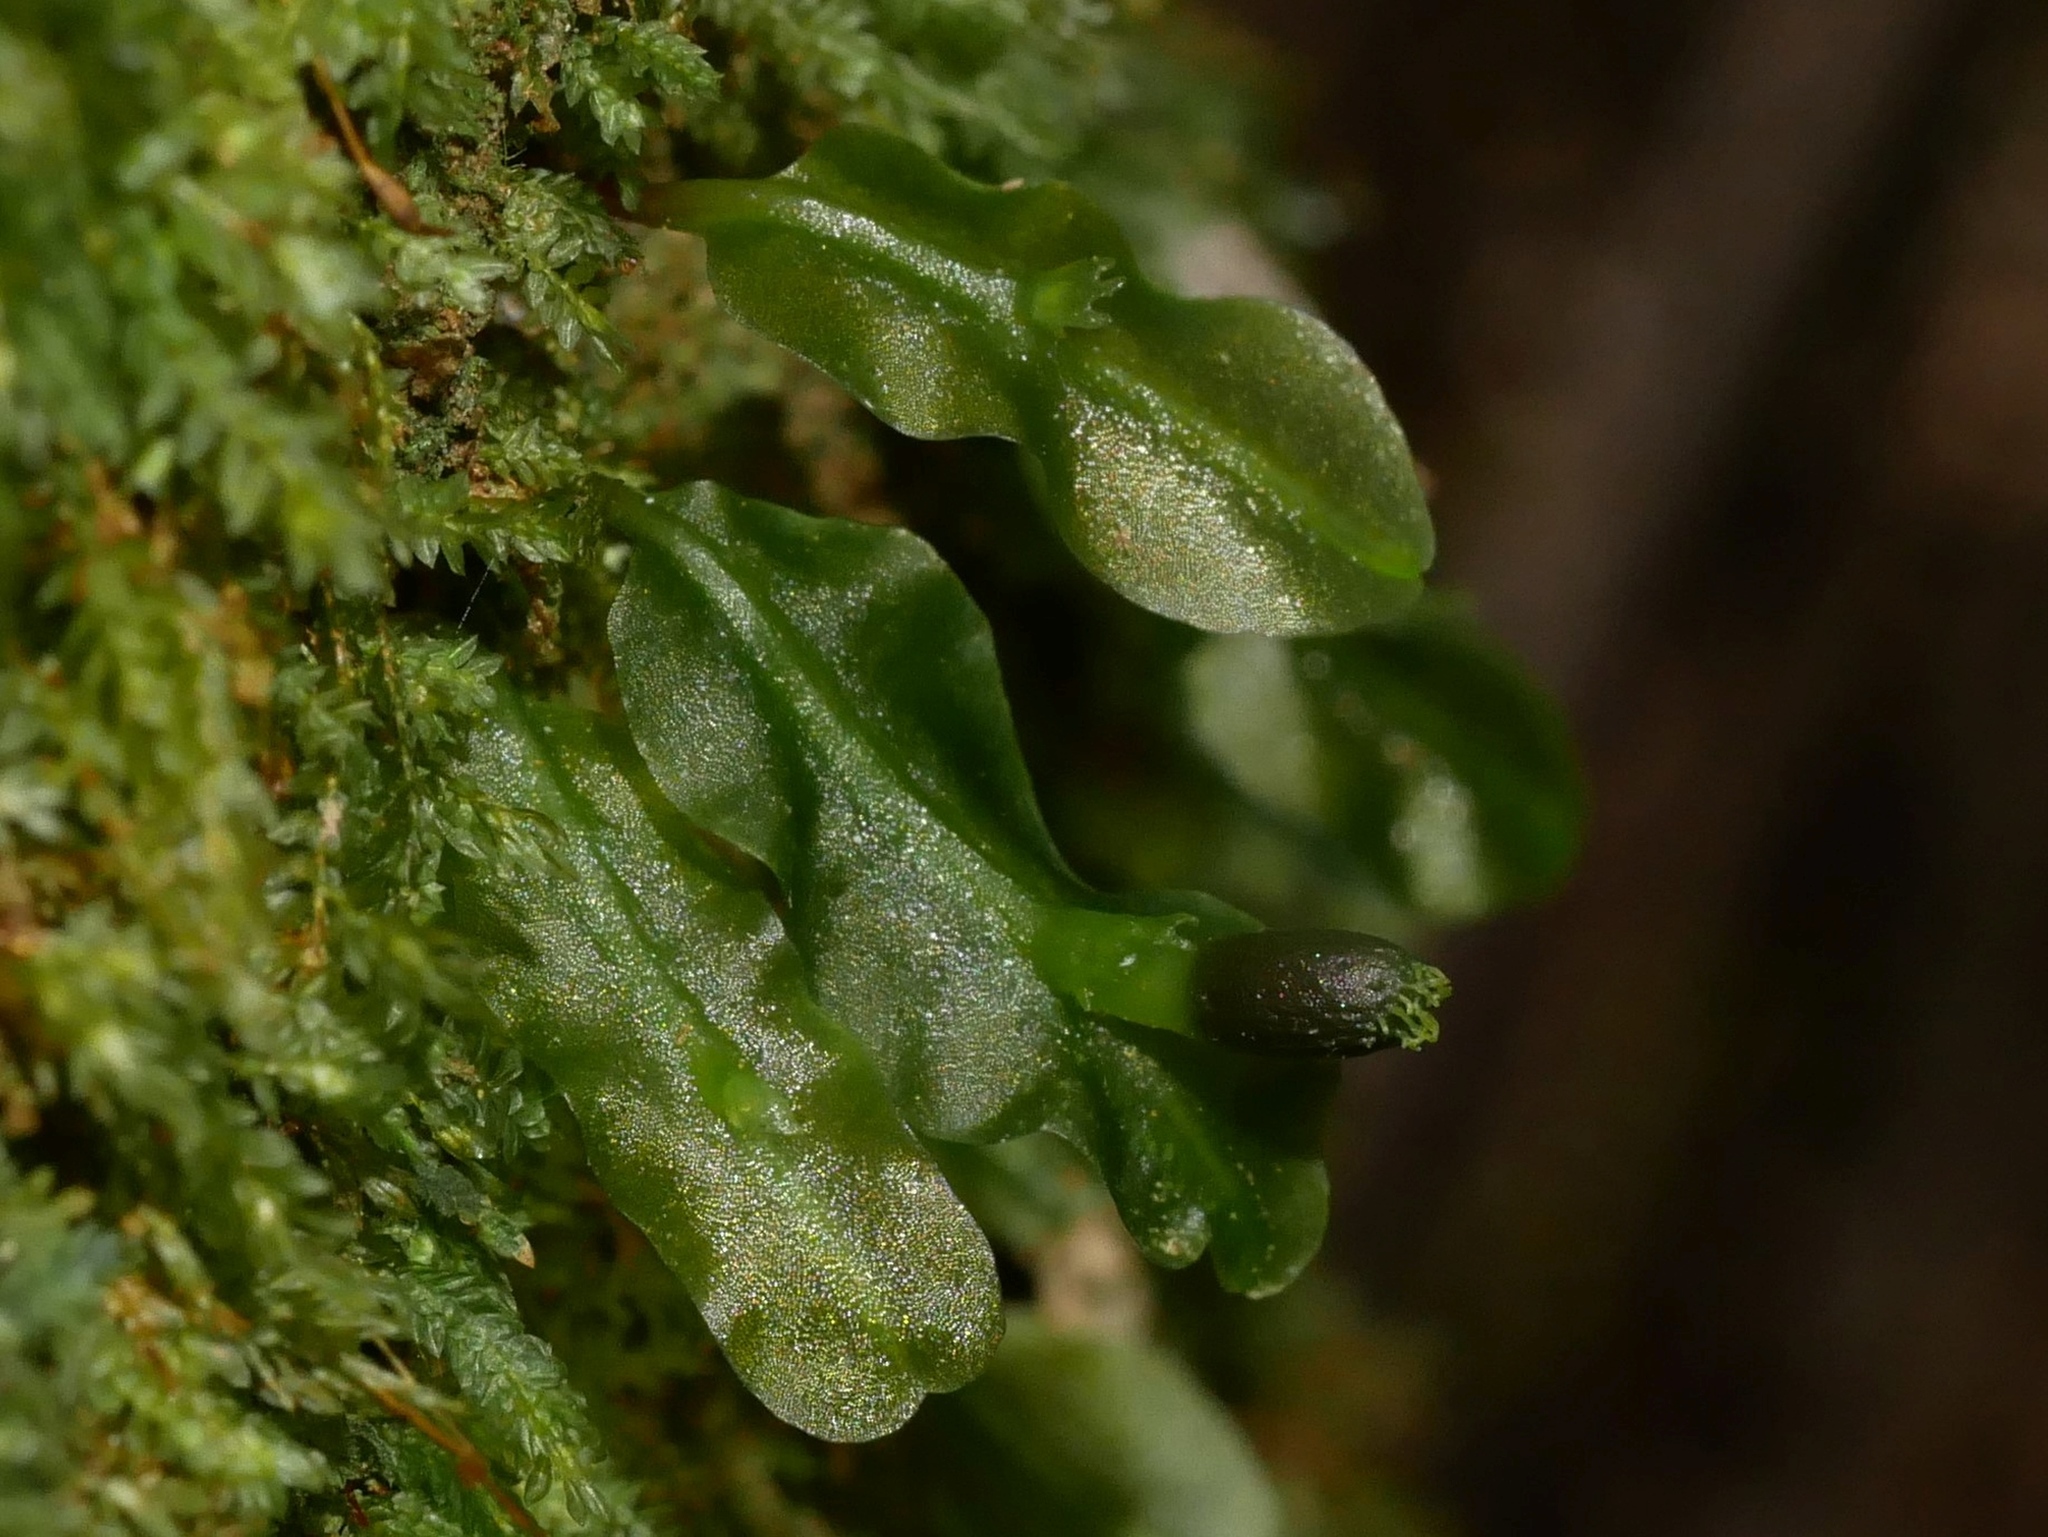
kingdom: Plantae
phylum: Marchantiophyta
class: Jungermanniopsida
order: Pallaviciniales
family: Pallaviciniaceae
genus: Symphyogyna
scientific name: Symphyogyna subsimplex
